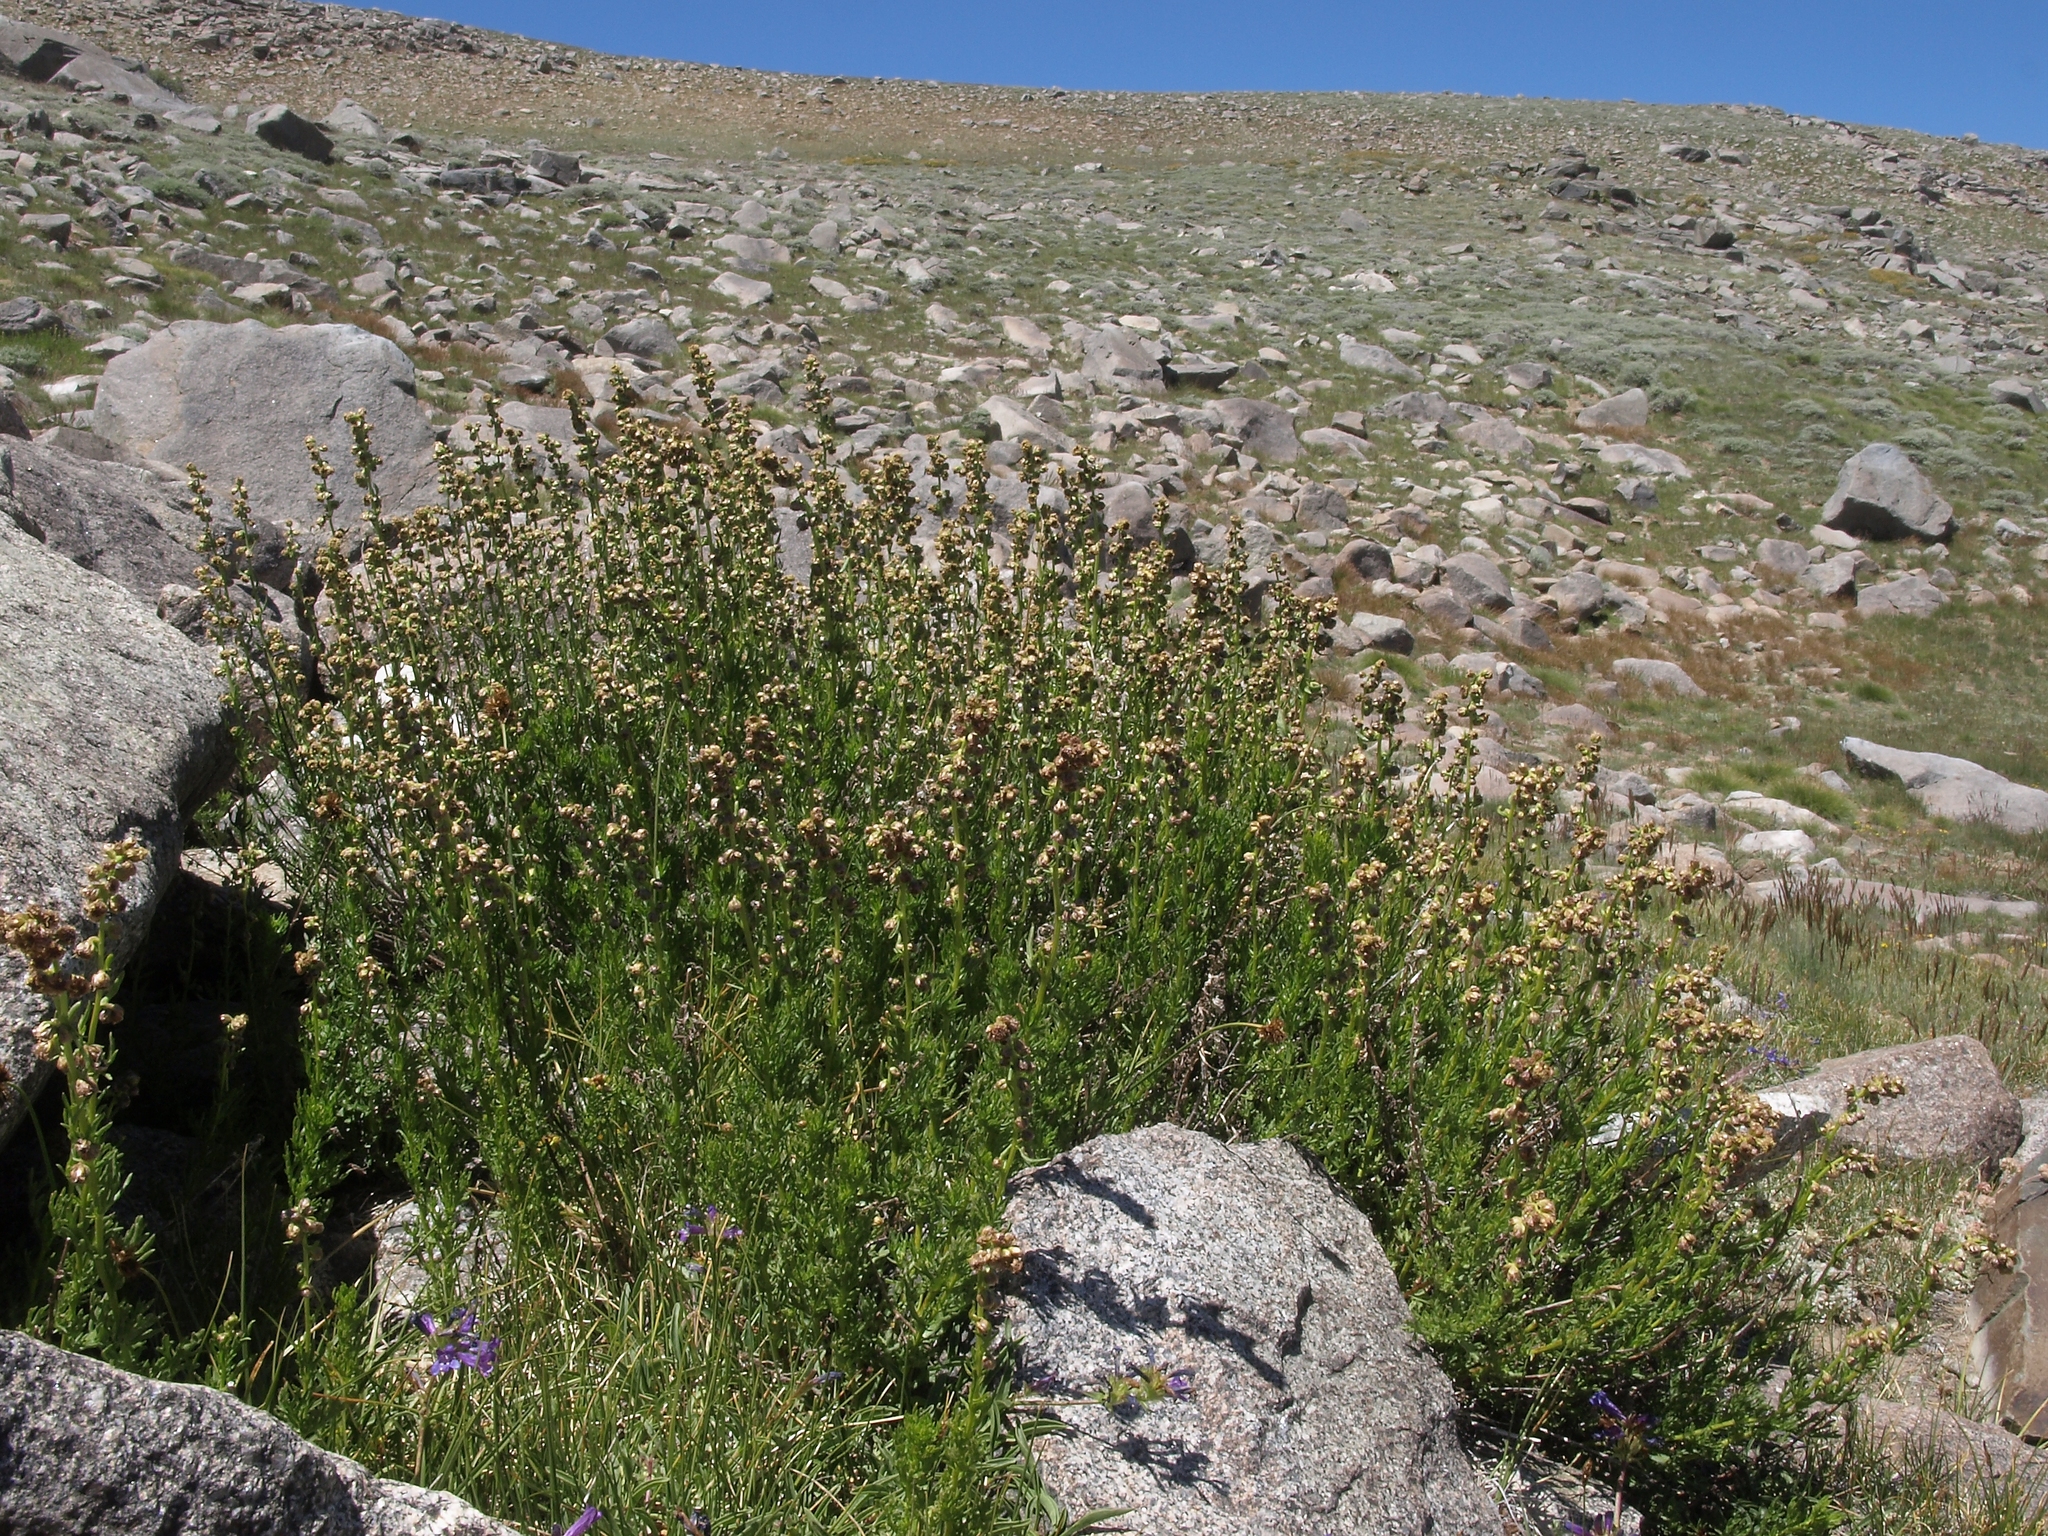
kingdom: Plantae
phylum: Tracheophyta
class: Magnoliopsida
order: Asterales
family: Asteraceae
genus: Artemisia
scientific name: Artemisia michauxiana
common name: Lemon sagewort
